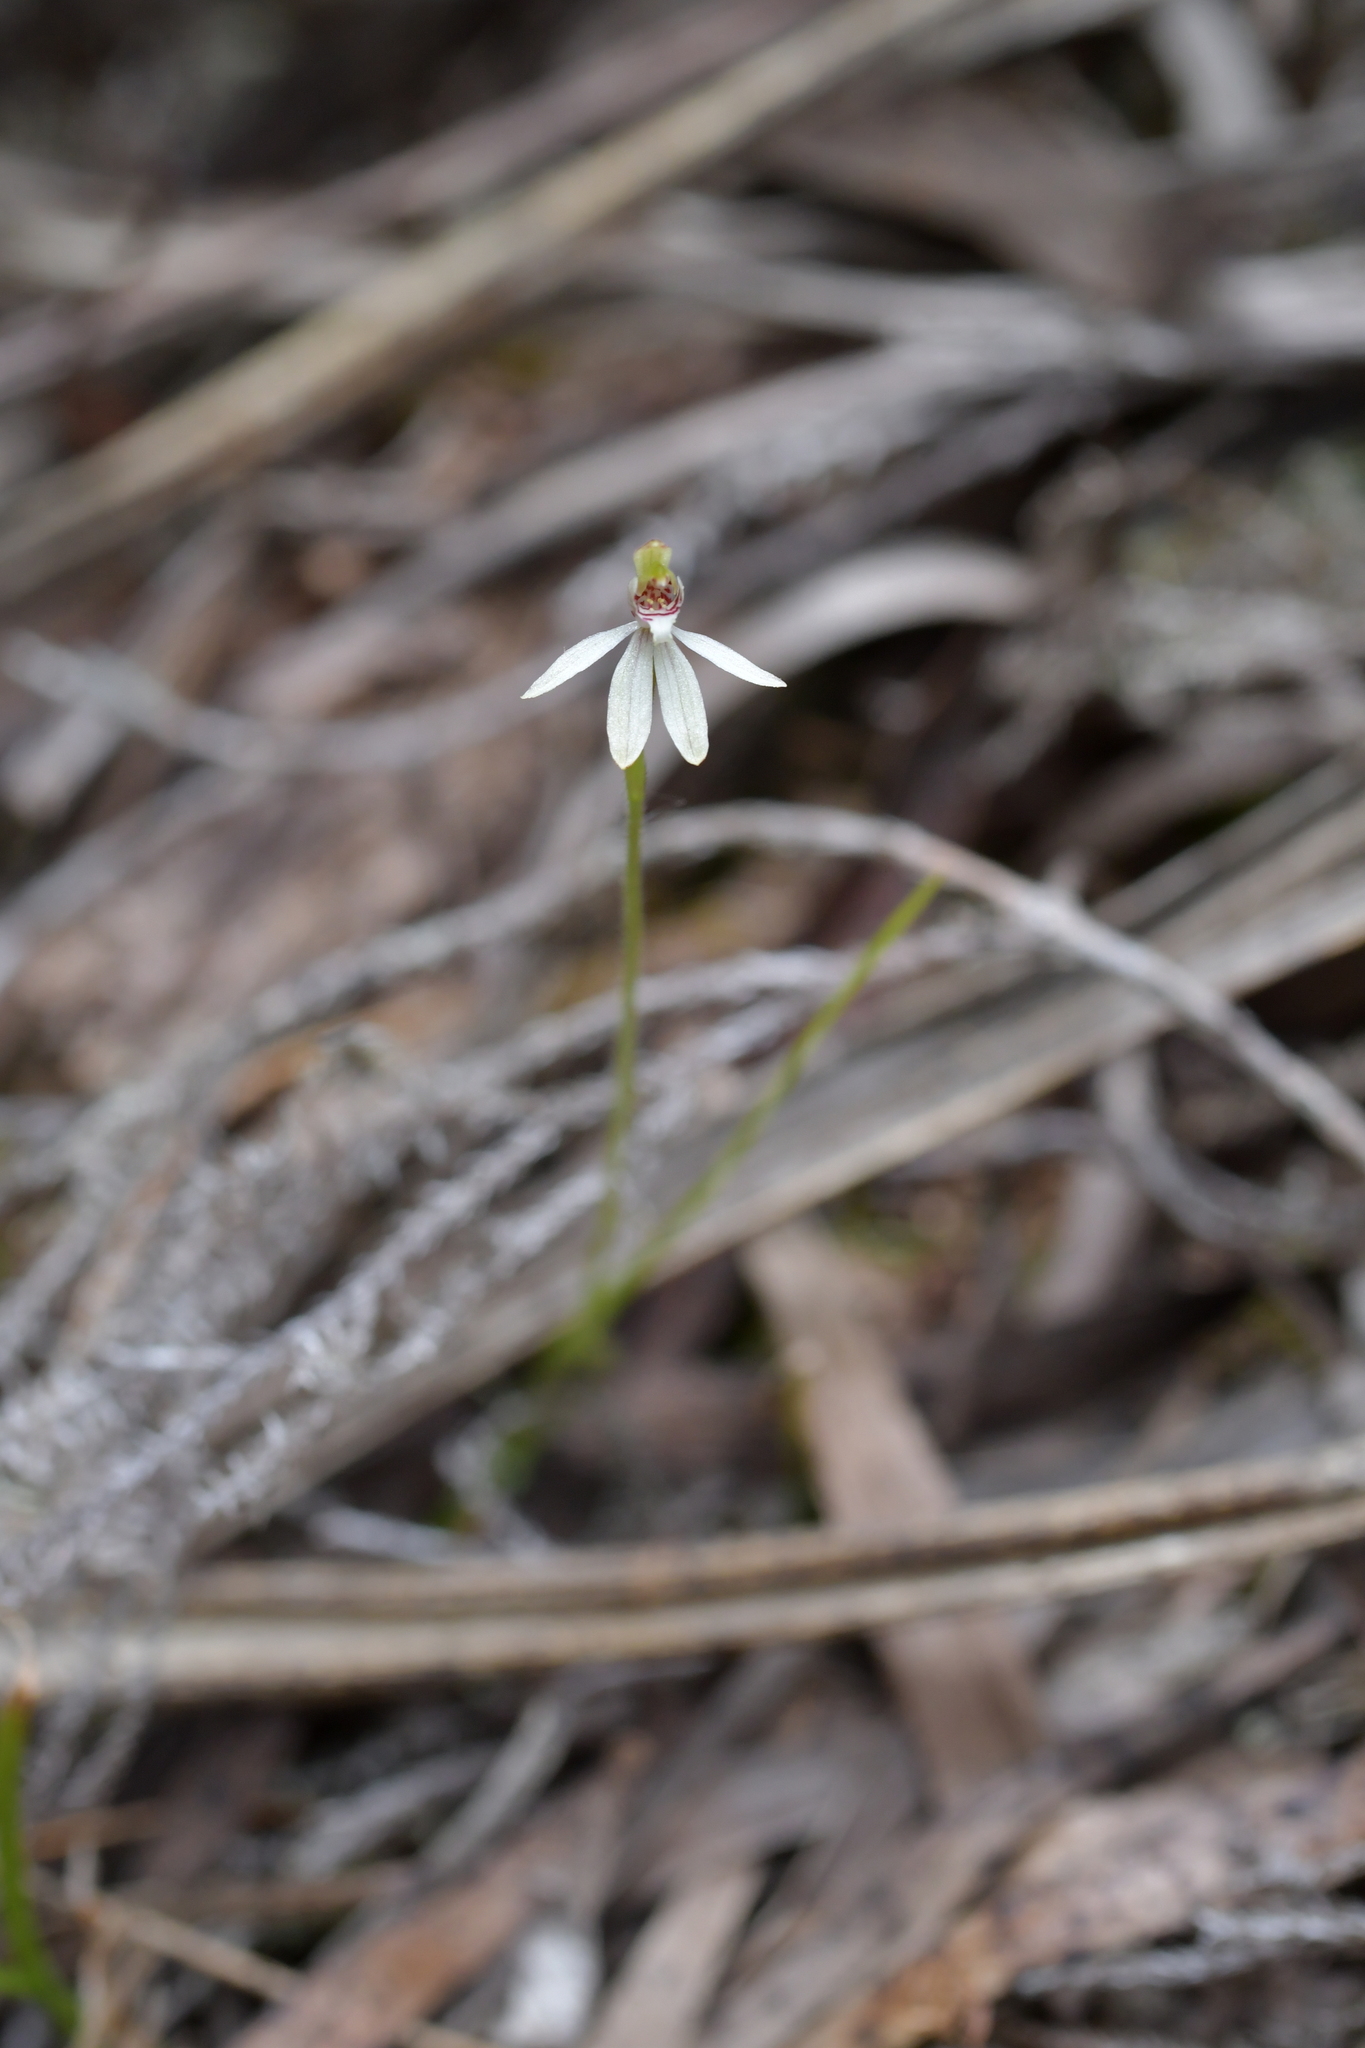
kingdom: Plantae
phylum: Tracheophyta
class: Liliopsida
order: Asparagales
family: Orchidaceae
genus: Caladenia
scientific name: Caladenia chlorostyla
